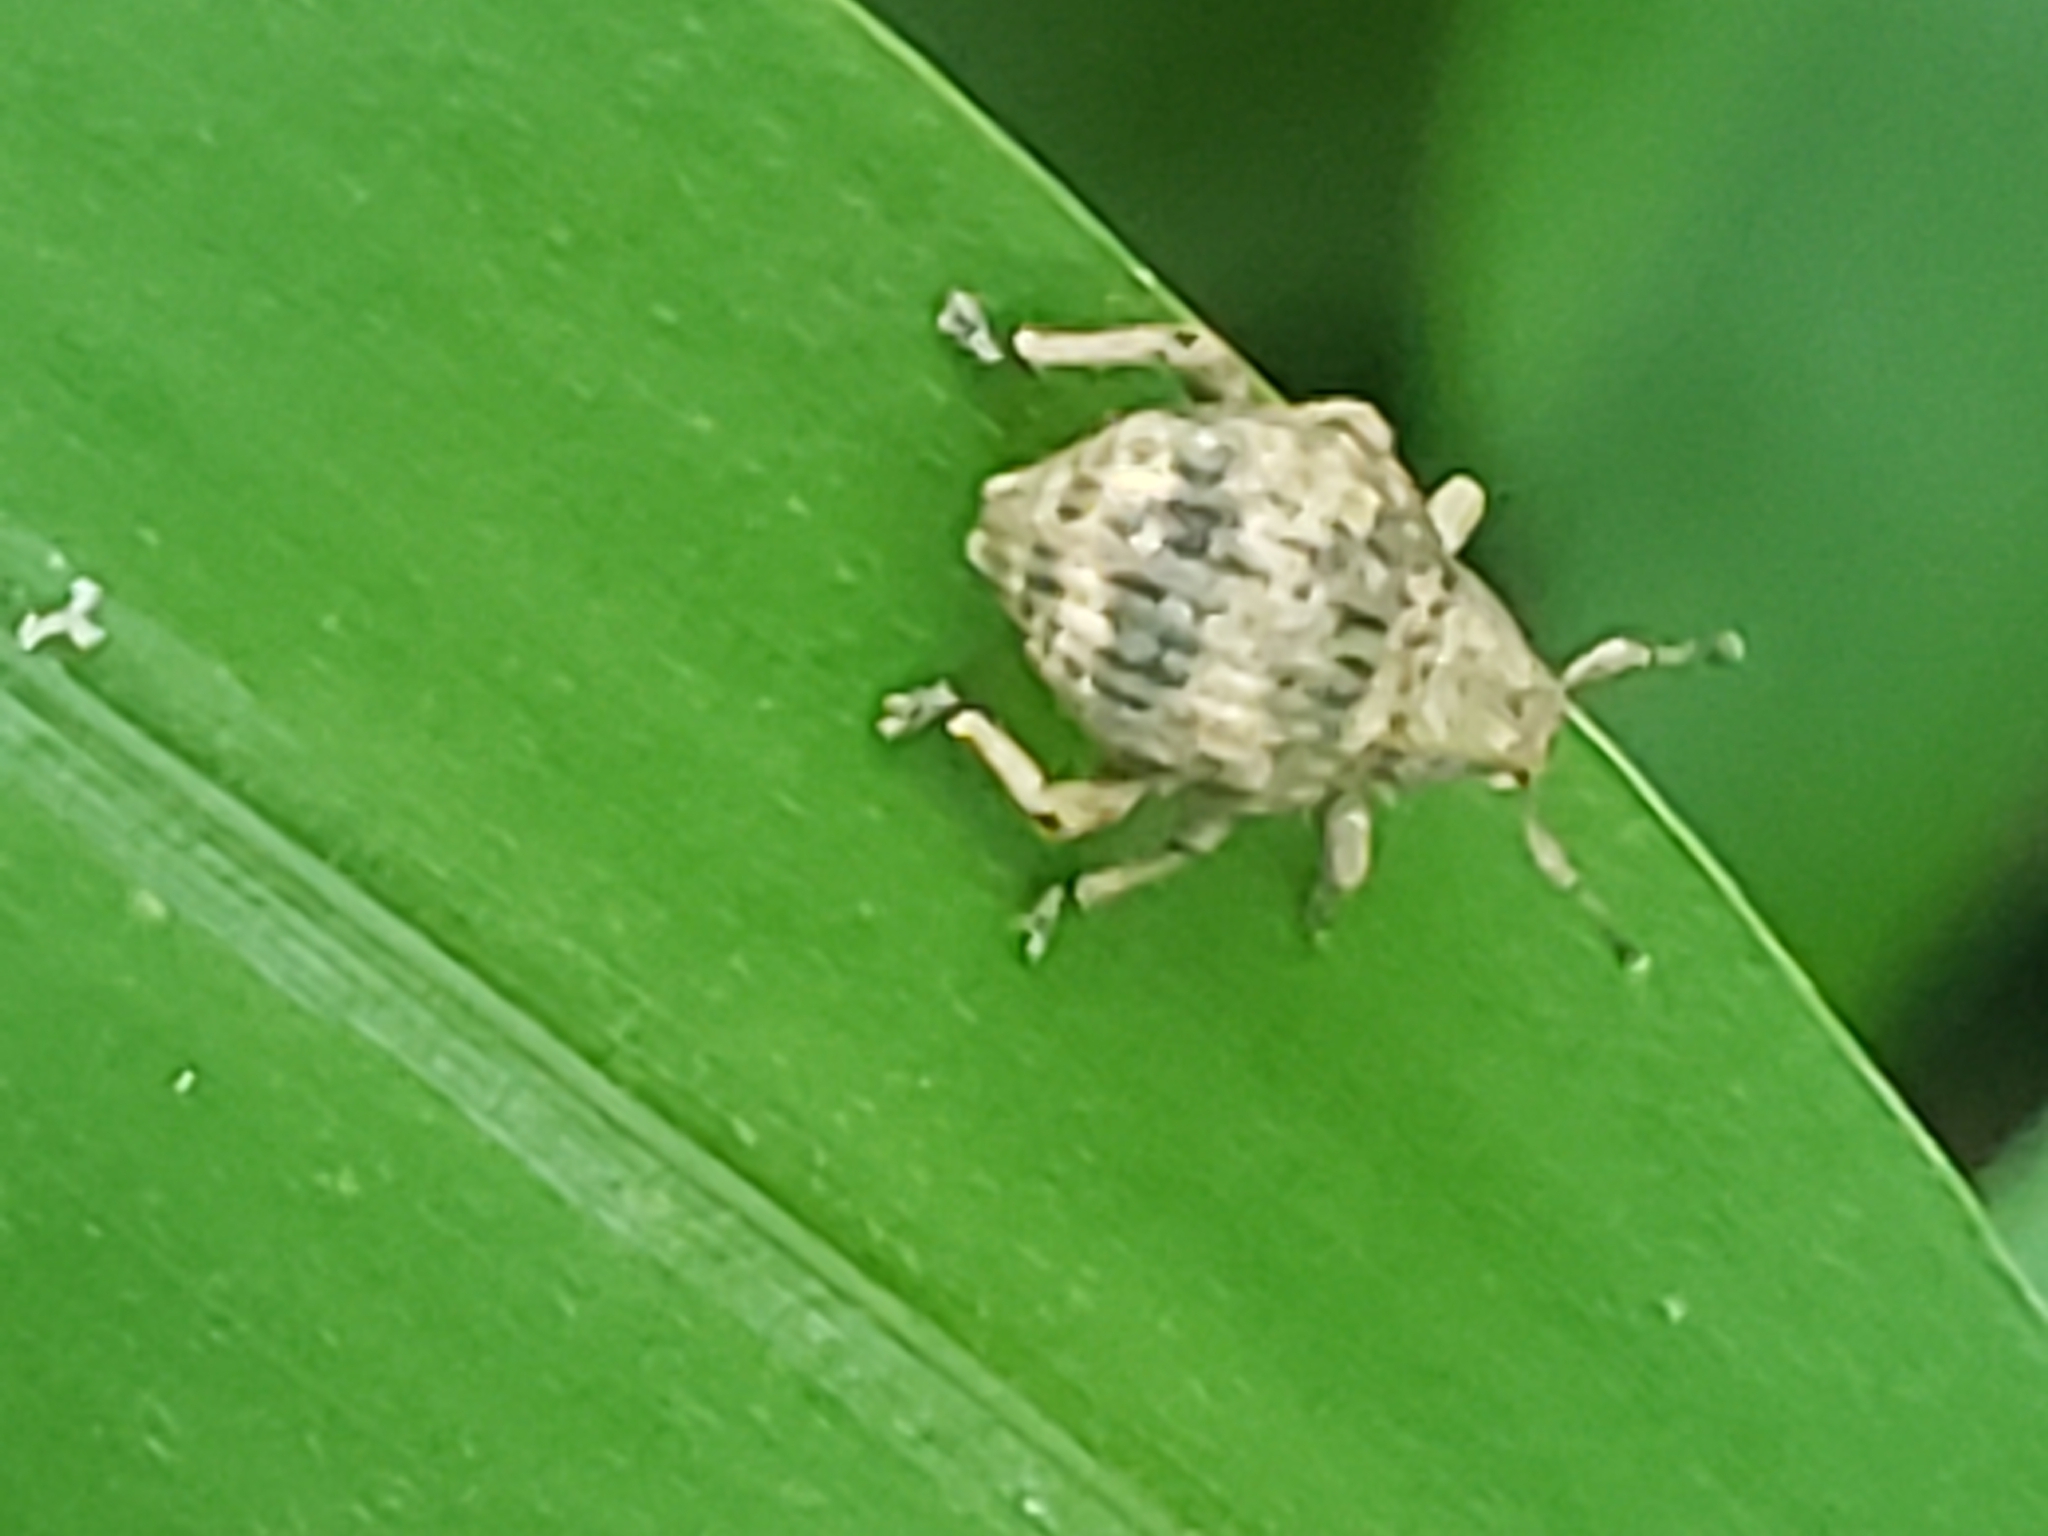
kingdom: Animalia
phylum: Arthropoda
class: Insecta
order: Coleoptera
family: Curculionidae
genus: Pseudocneorhinus
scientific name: Pseudocneorhinus bifasciatus
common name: Two-banded japanese weevil
